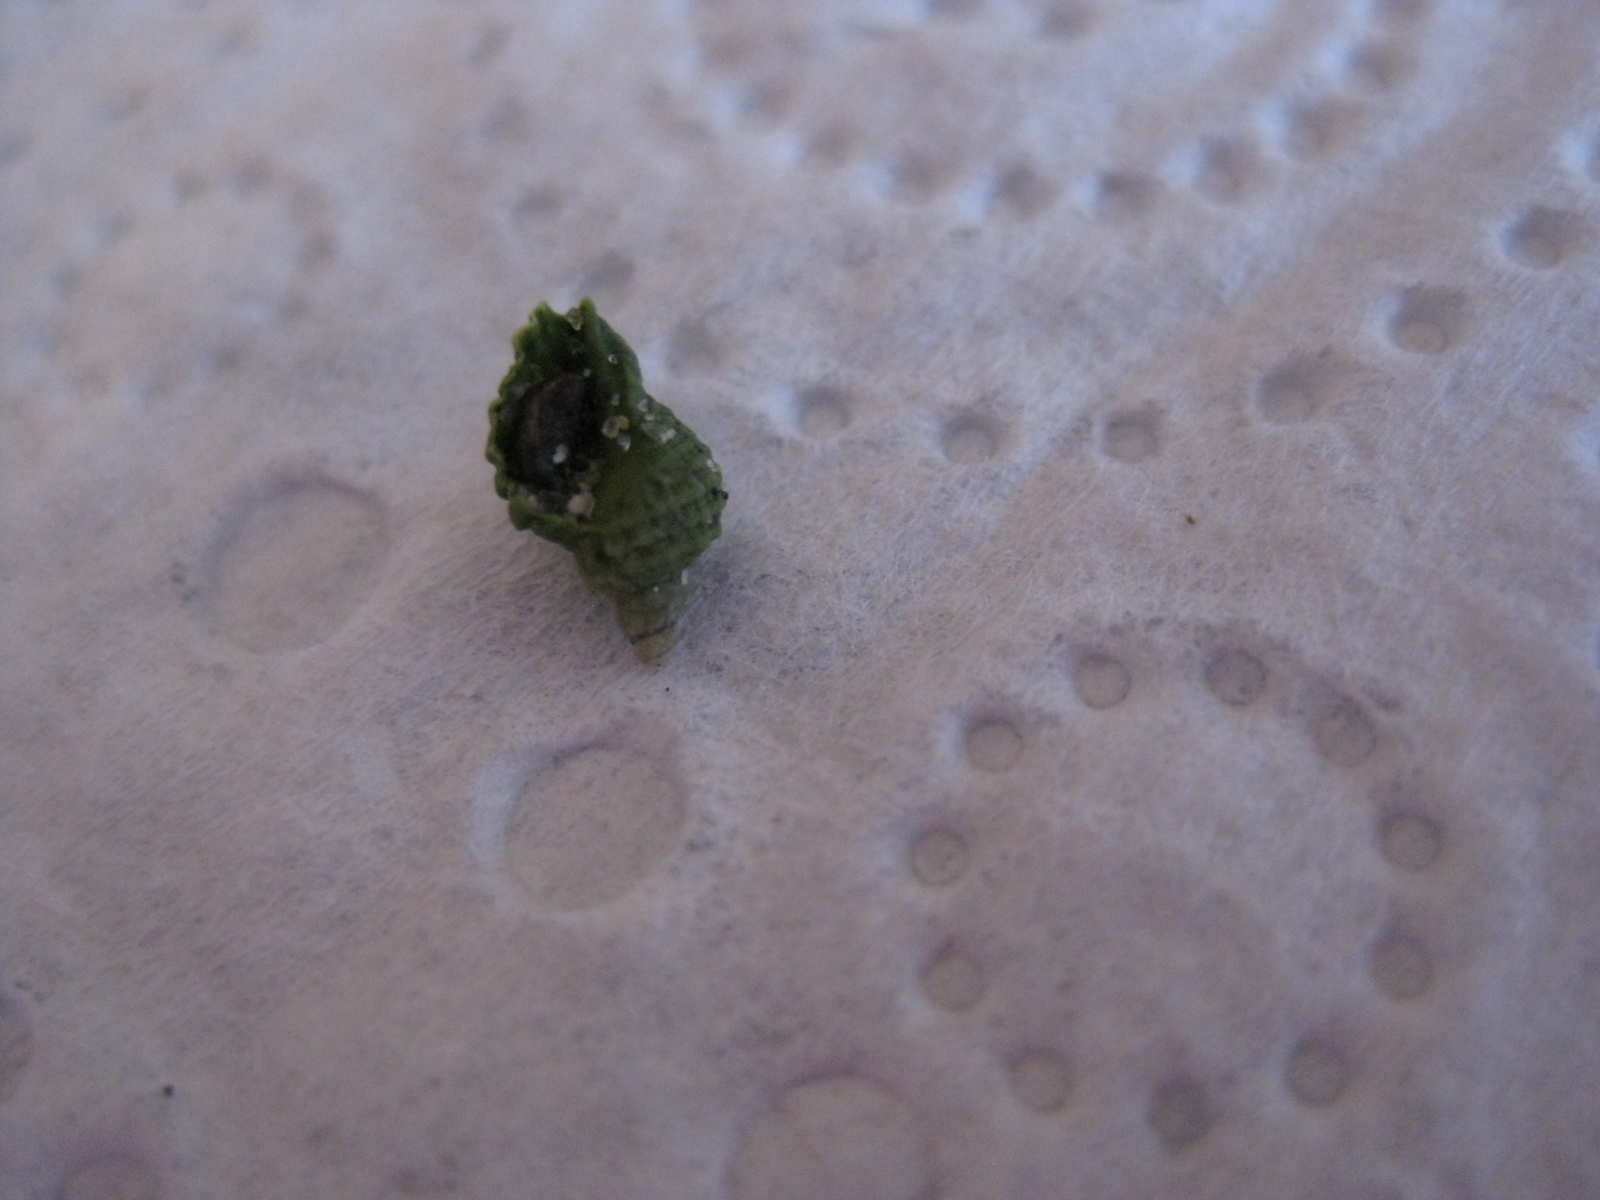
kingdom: Animalia
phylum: Mollusca
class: Gastropoda
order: Neogastropoda
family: Muricidae
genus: Dicathais
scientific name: Dicathais orbita
